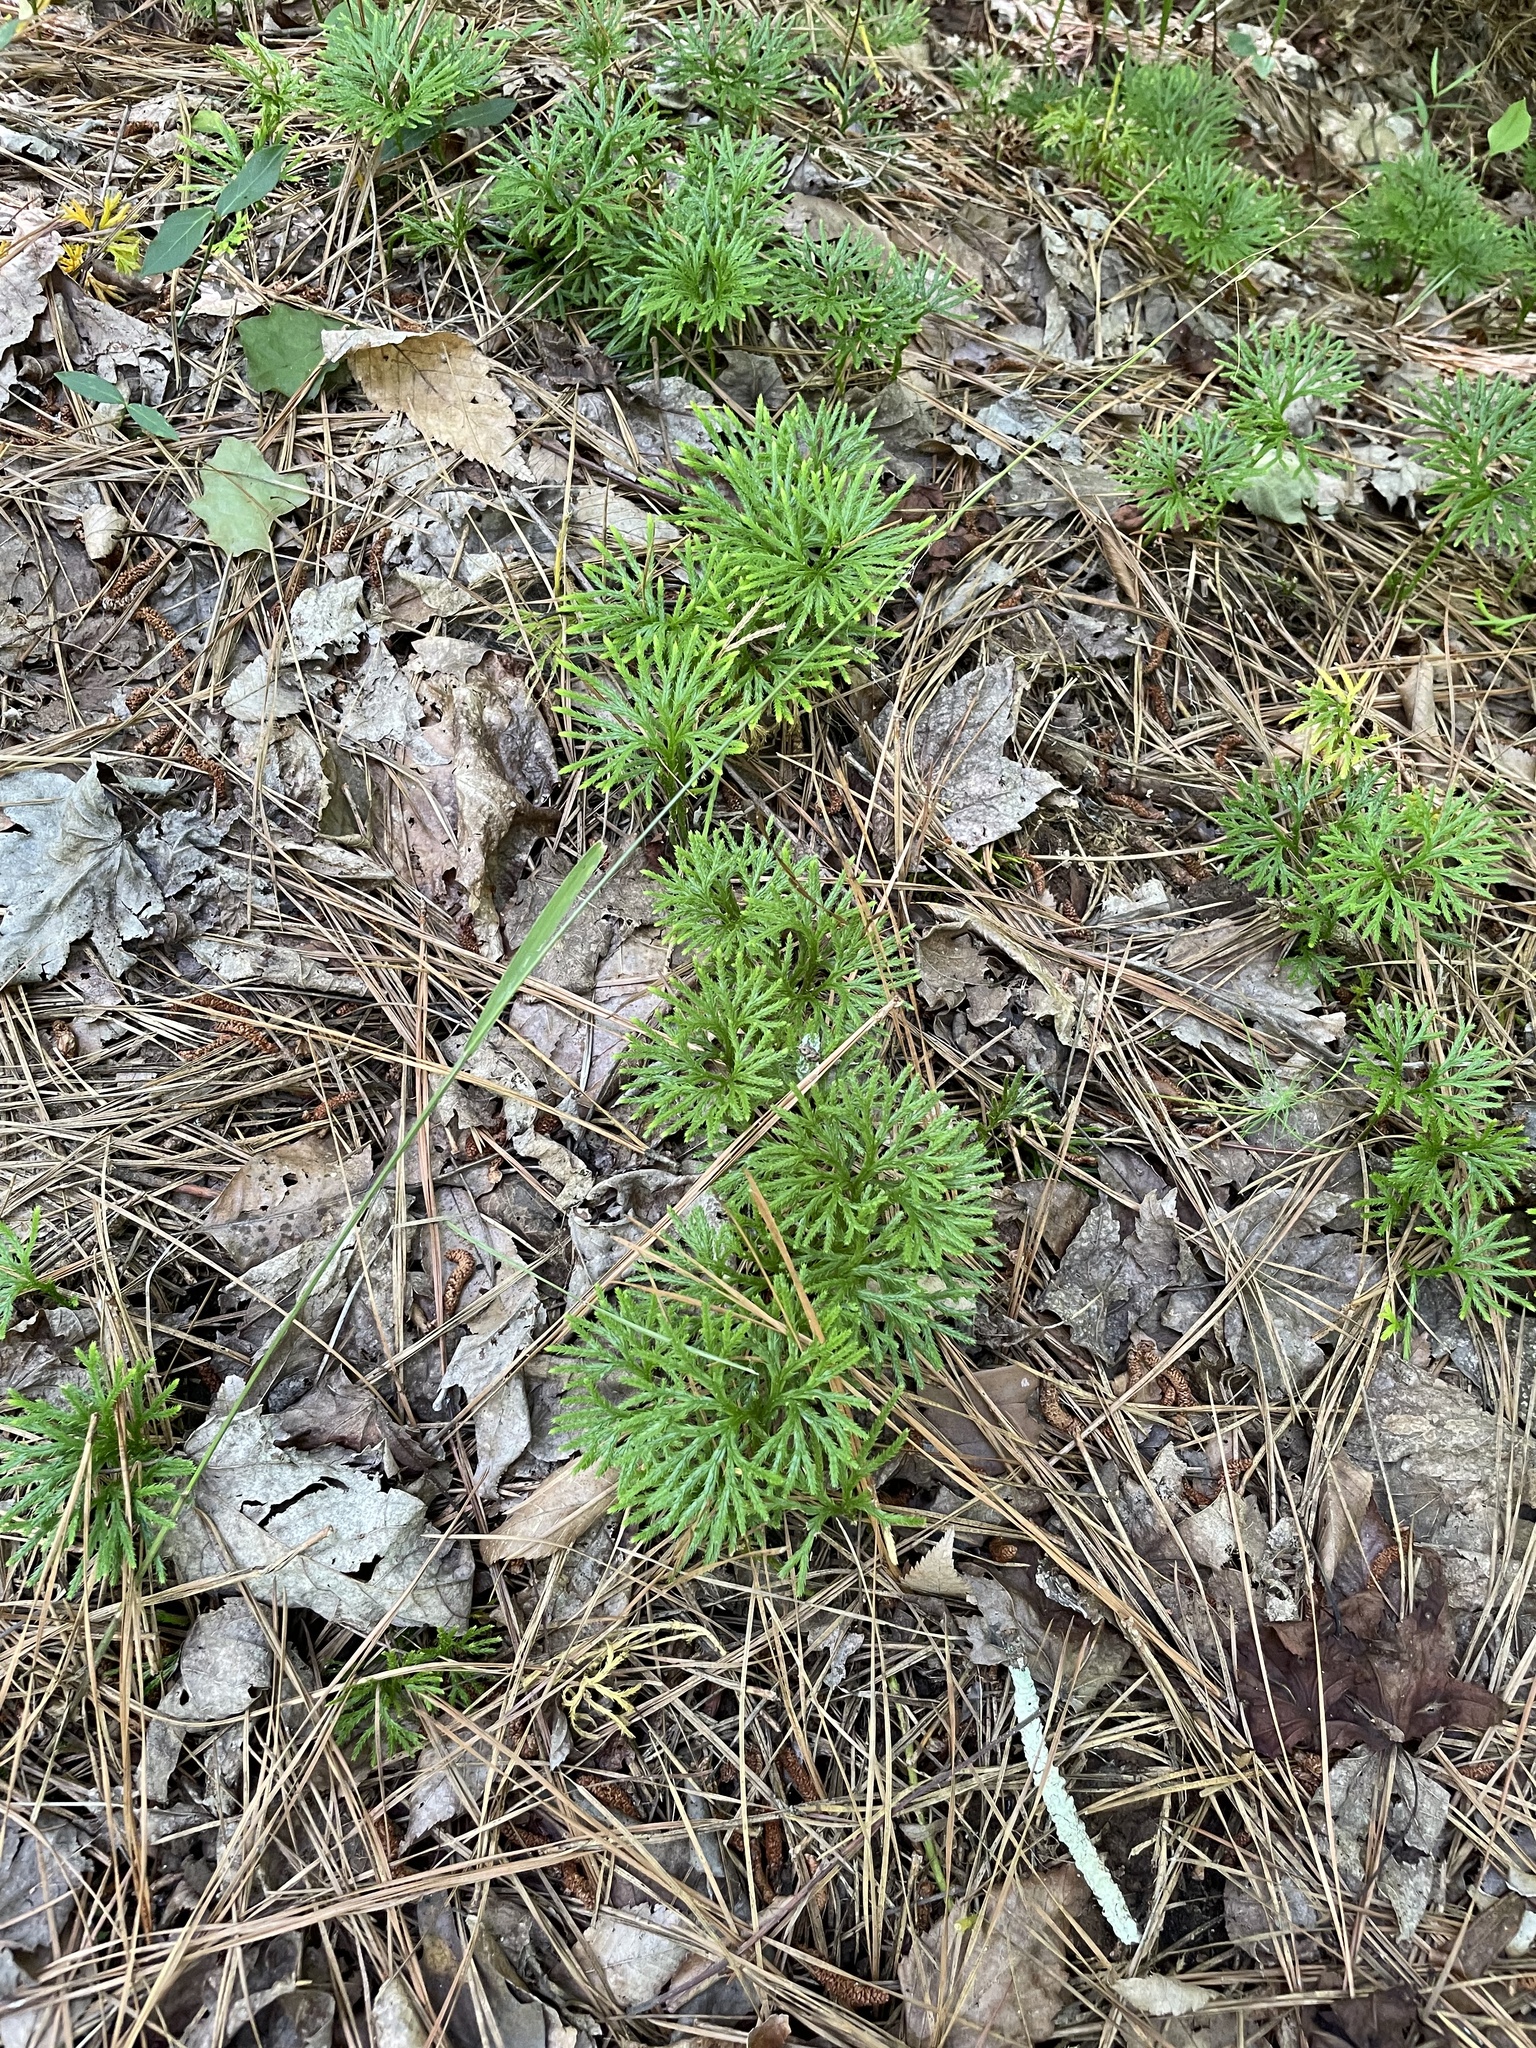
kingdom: Plantae
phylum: Tracheophyta
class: Lycopodiopsida
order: Lycopodiales
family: Lycopodiaceae
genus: Diphasiastrum
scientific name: Diphasiastrum digitatum
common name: Southern running-pine
